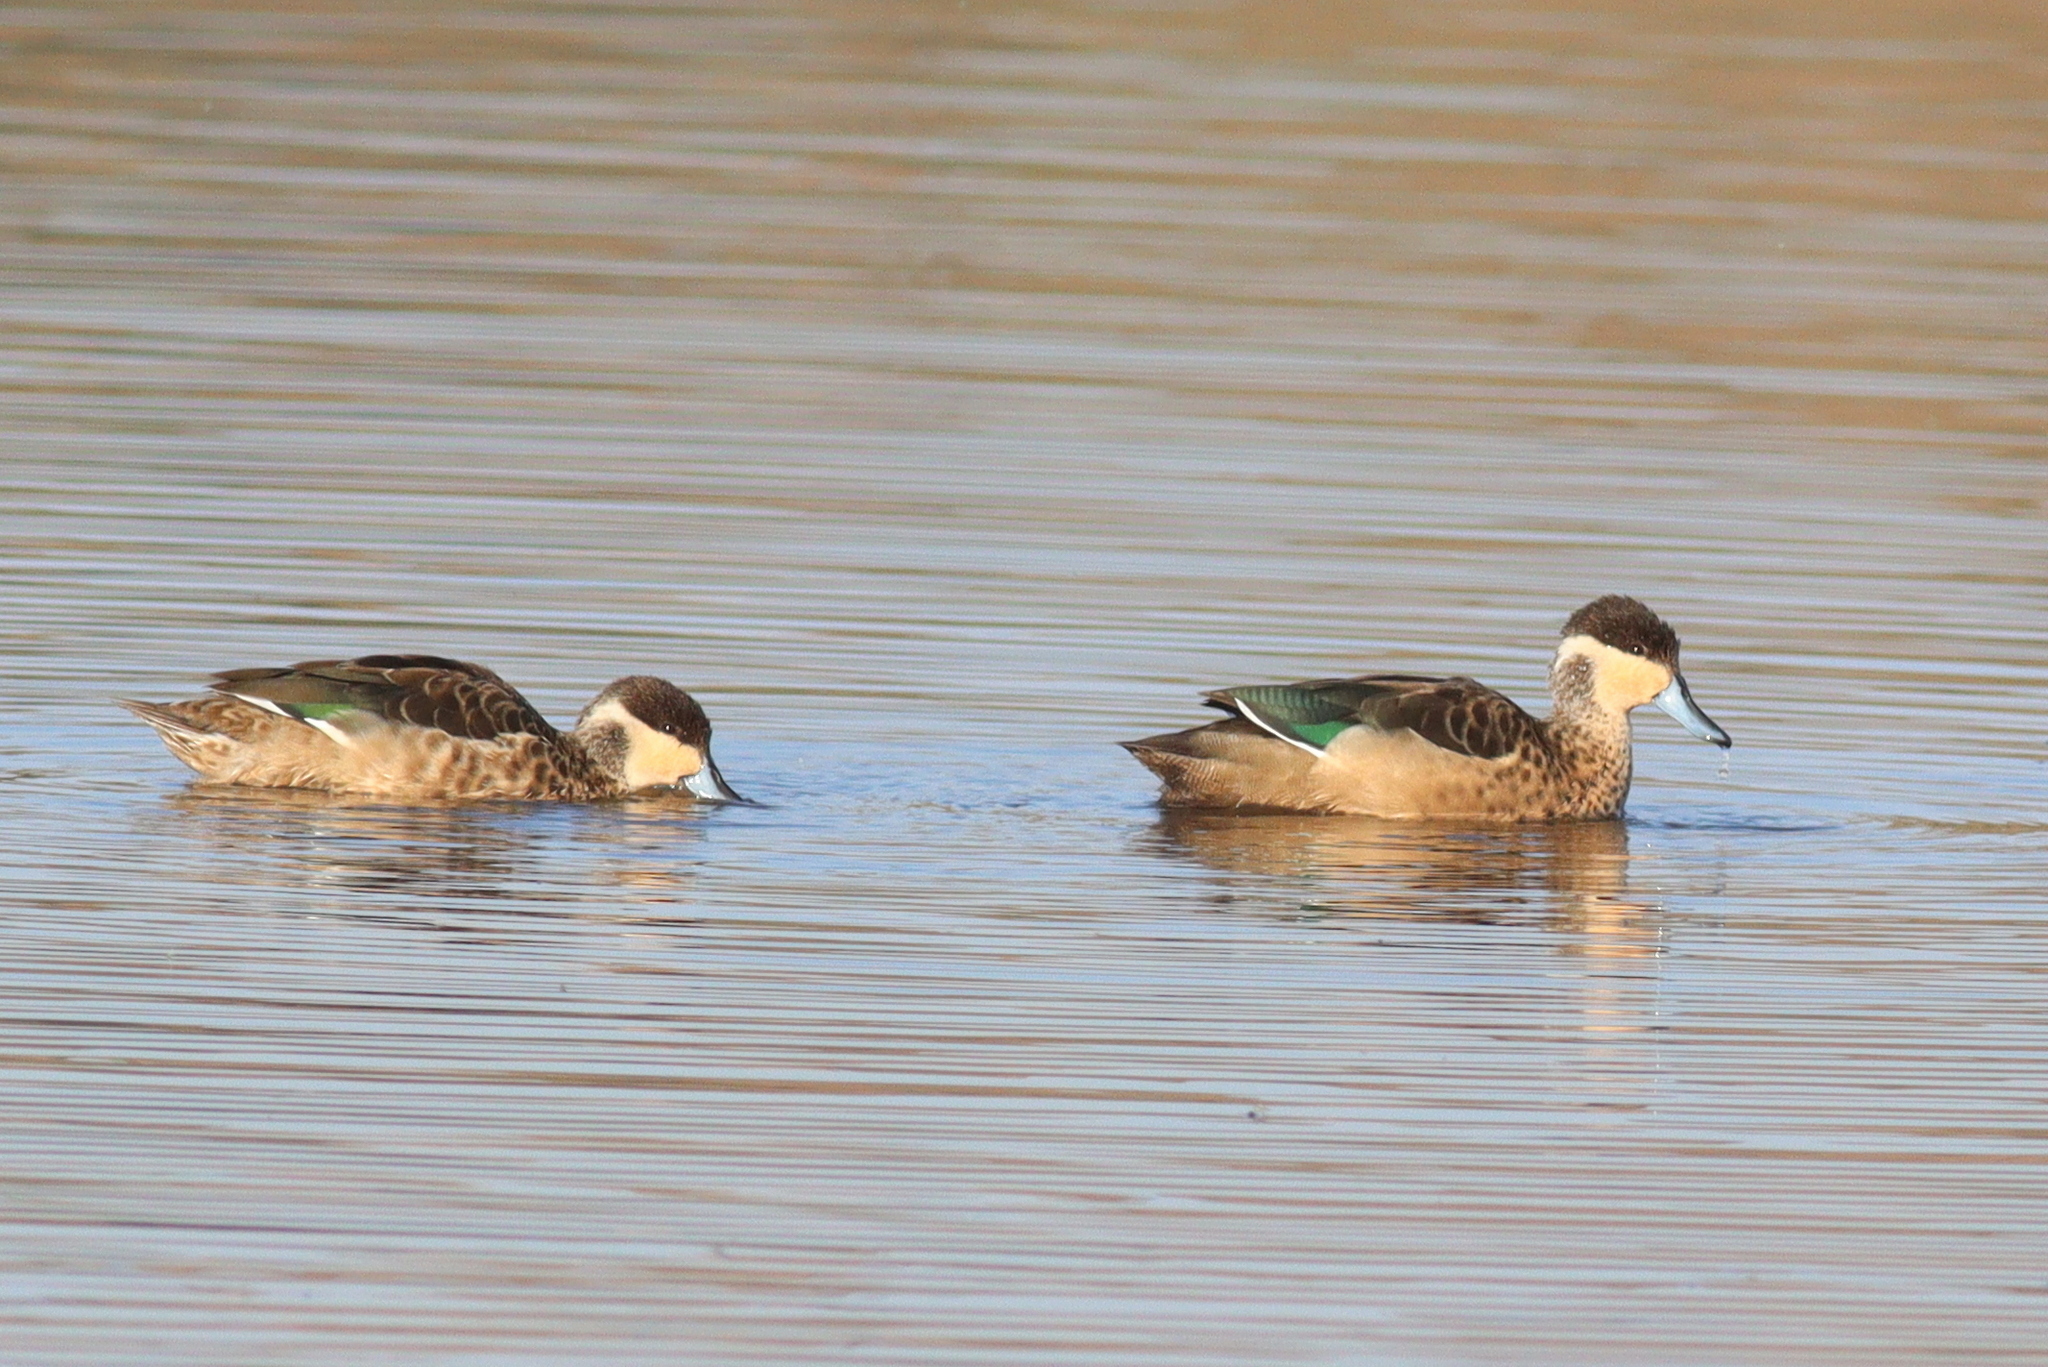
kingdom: Animalia
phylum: Chordata
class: Aves
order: Anseriformes
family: Anatidae
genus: Spatula
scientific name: Spatula hottentota
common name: Blue-billed teal
